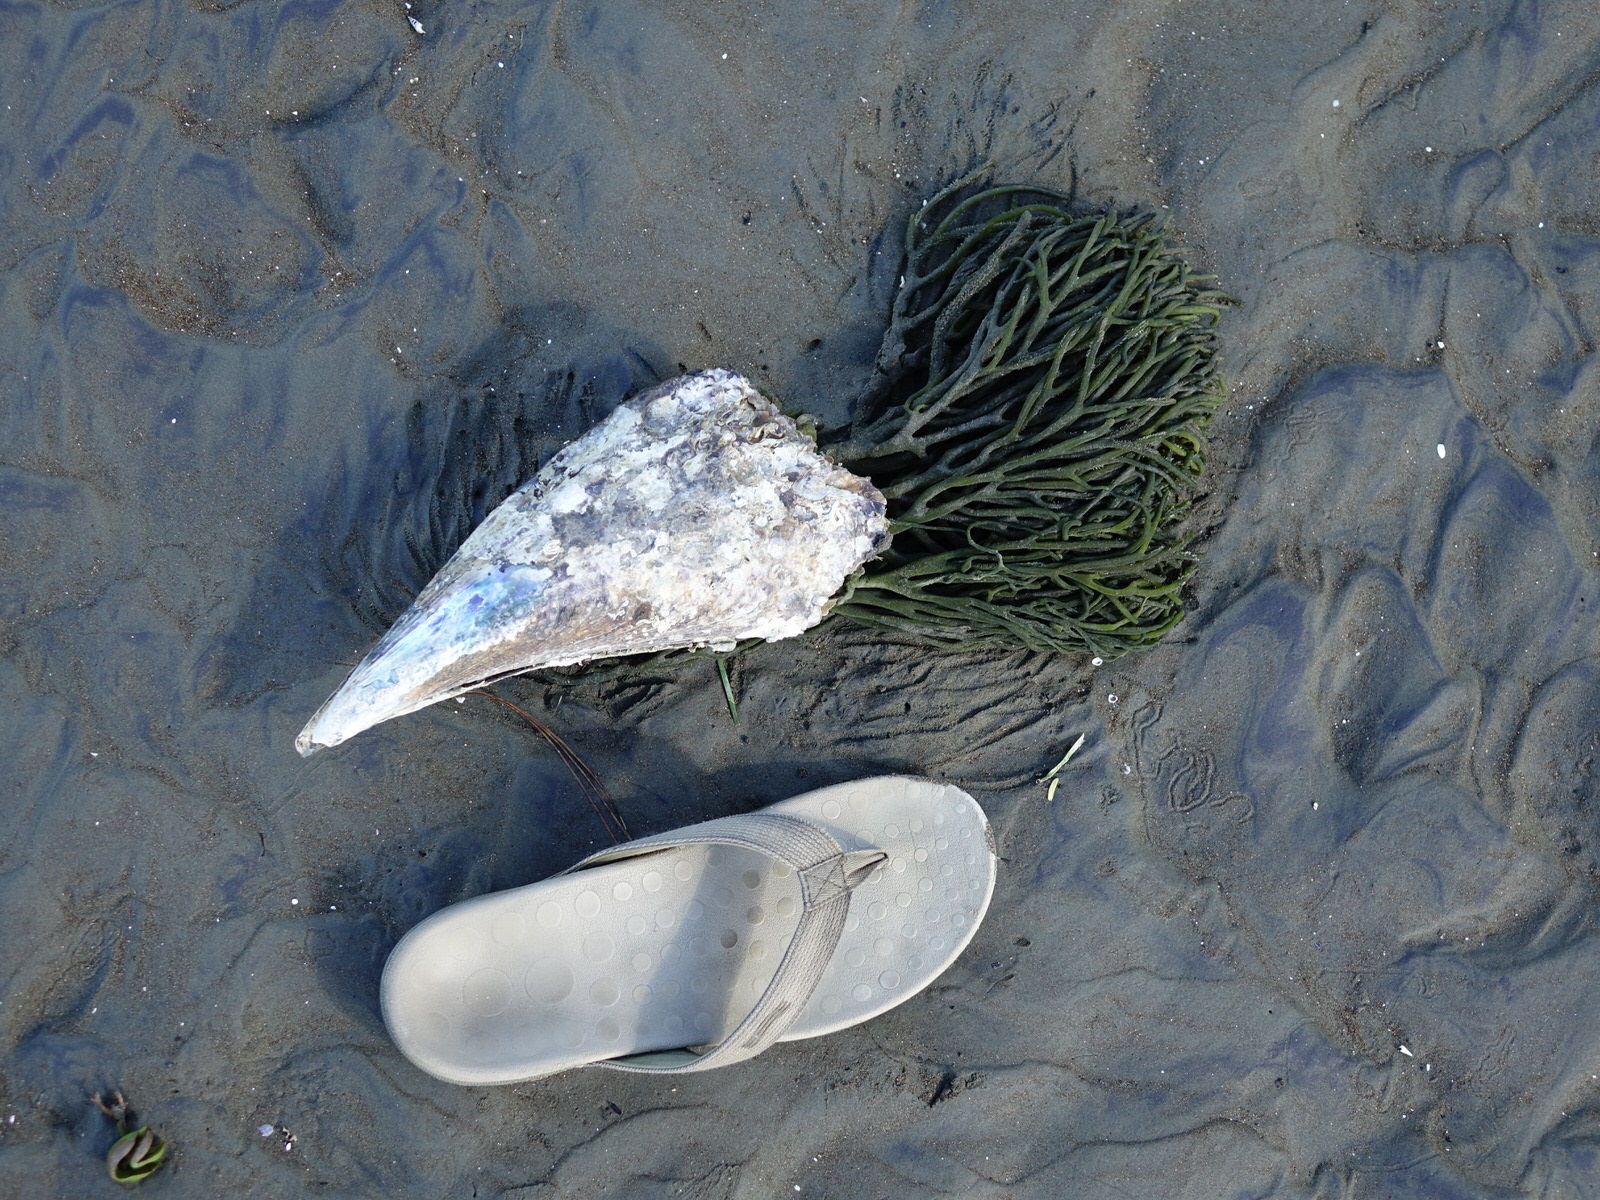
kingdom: Animalia
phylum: Mollusca
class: Bivalvia
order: Ostreida
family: Pinnidae
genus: Atrina
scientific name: Atrina zelandica
